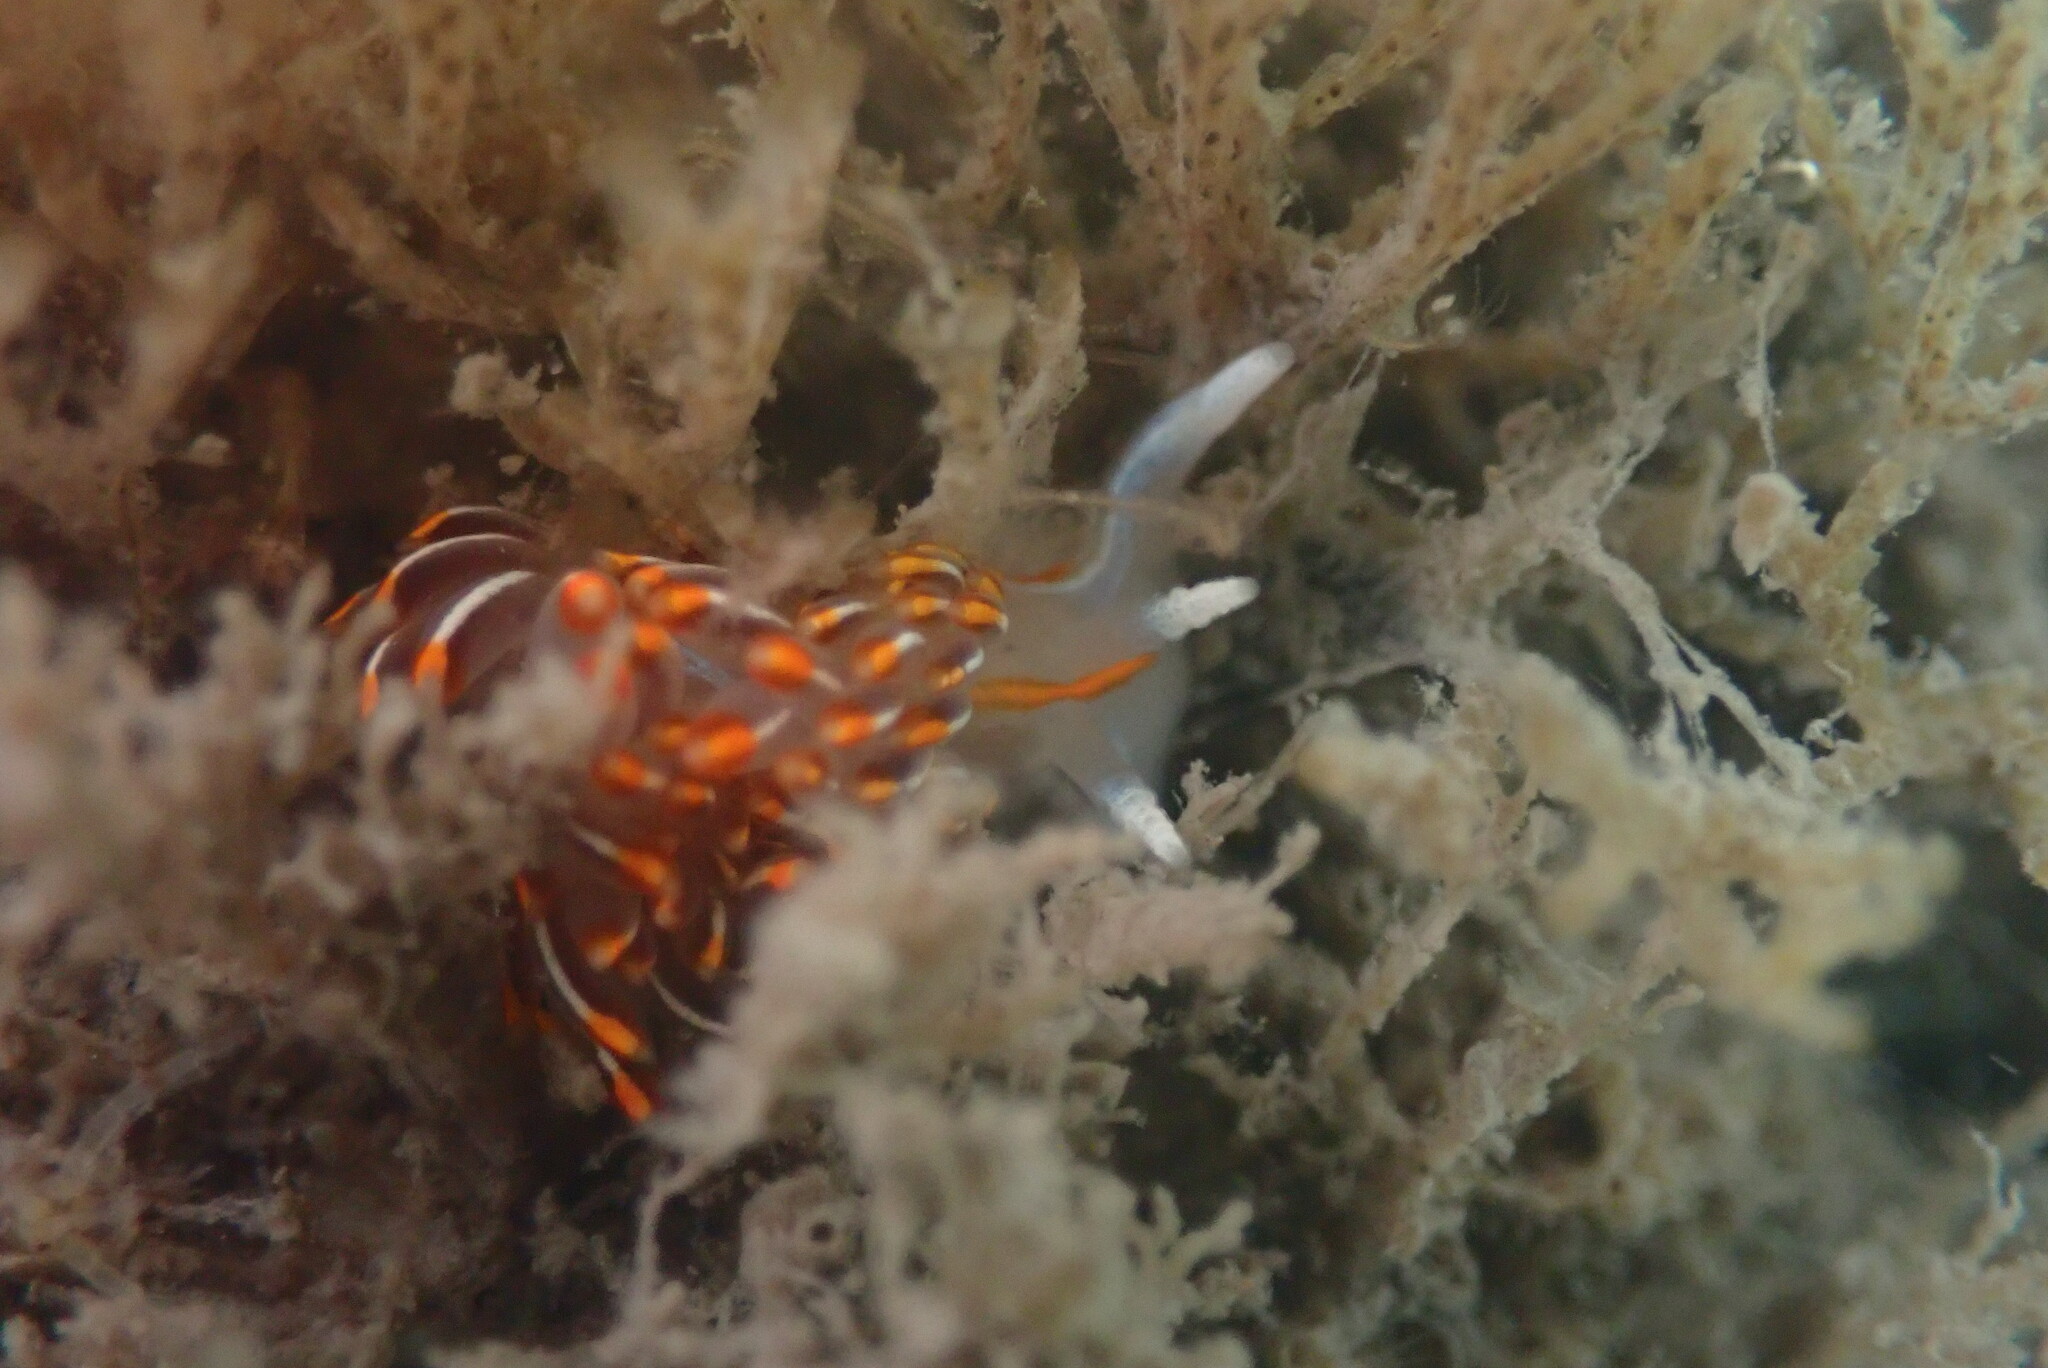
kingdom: Animalia
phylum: Mollusca
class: Gastropoda
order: Nudibranchia
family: Myrrhinidae
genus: Hermissenda
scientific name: Hermissenda crassicornis
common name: Hermissenda
